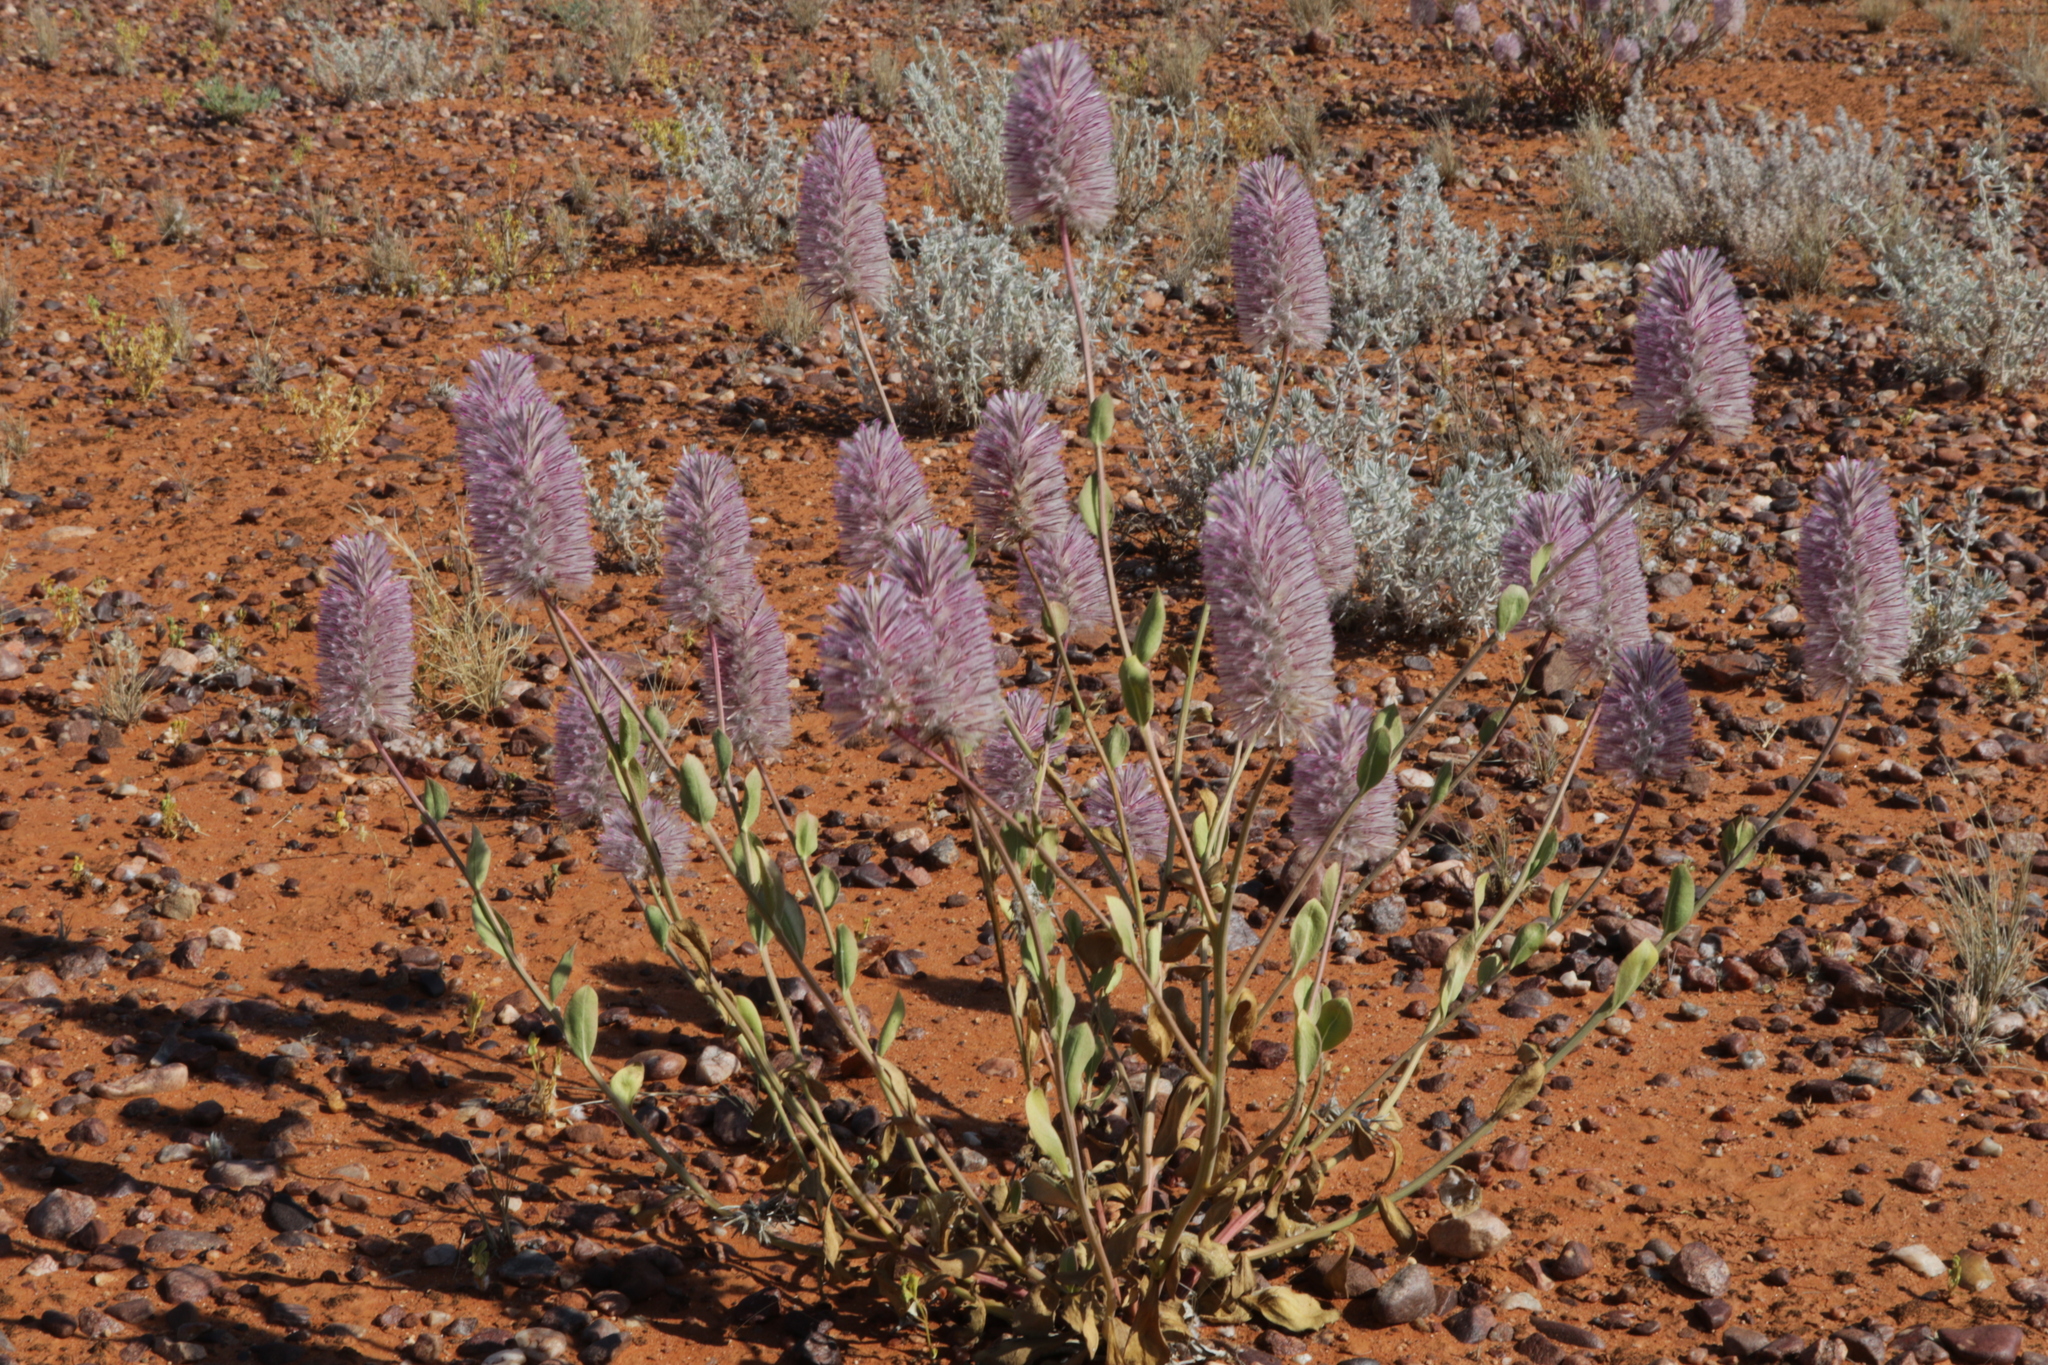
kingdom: Plantae
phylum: Tracheophyta
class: Magnoliopsida
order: Caryophyllales
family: Amaranthaceae
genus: Ptilotus
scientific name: Ptilotus exaltatus
